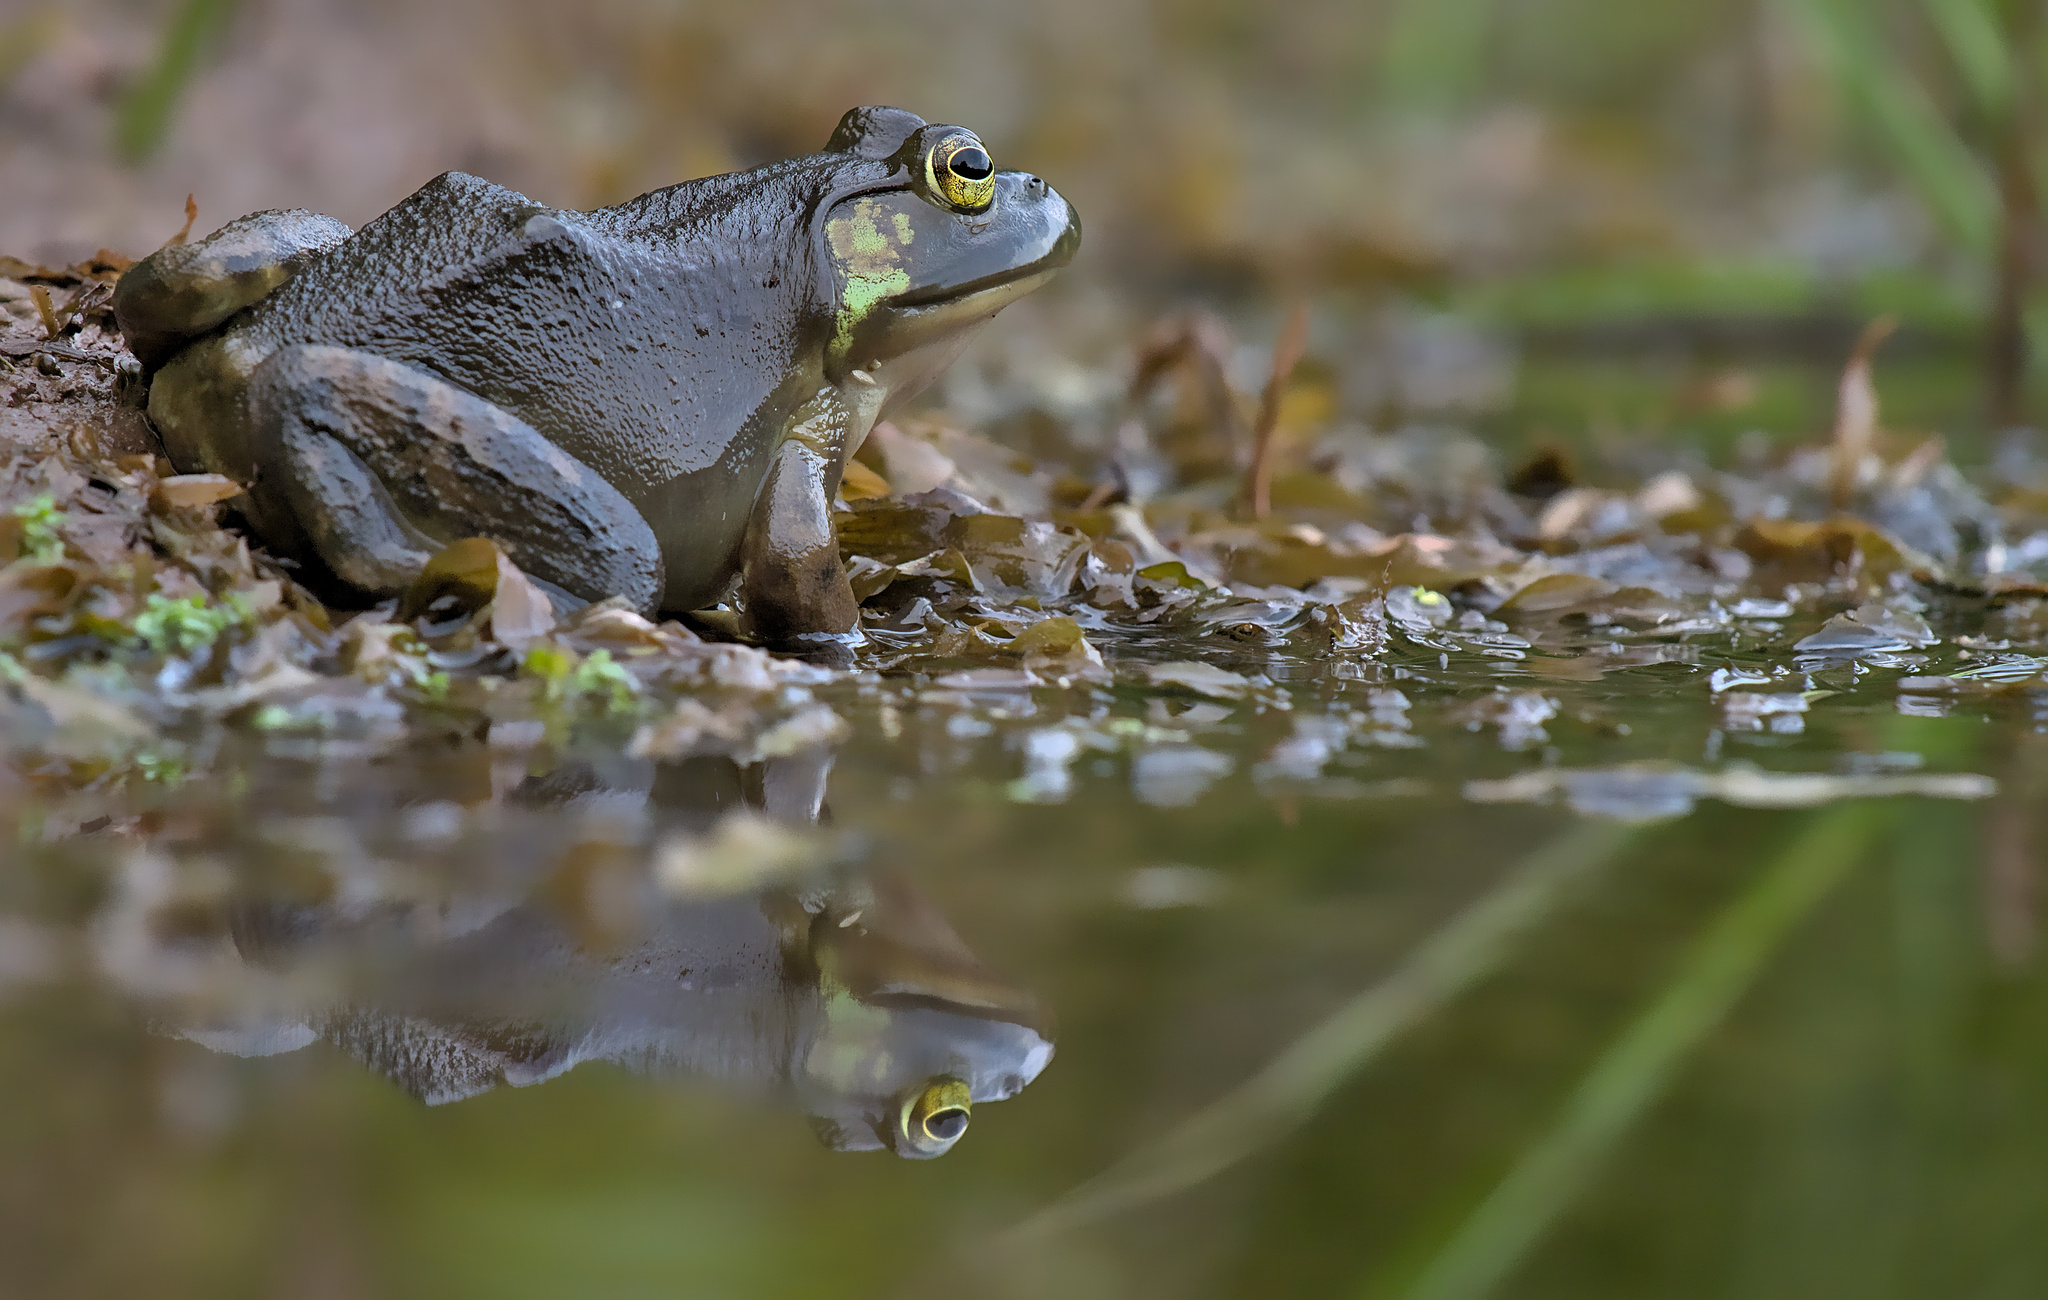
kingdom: Animalia
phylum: Chordata
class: Amphibia
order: Anura
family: Ranidae
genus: Lithobates
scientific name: Lithobates catesbeianus
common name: American bullfrog
